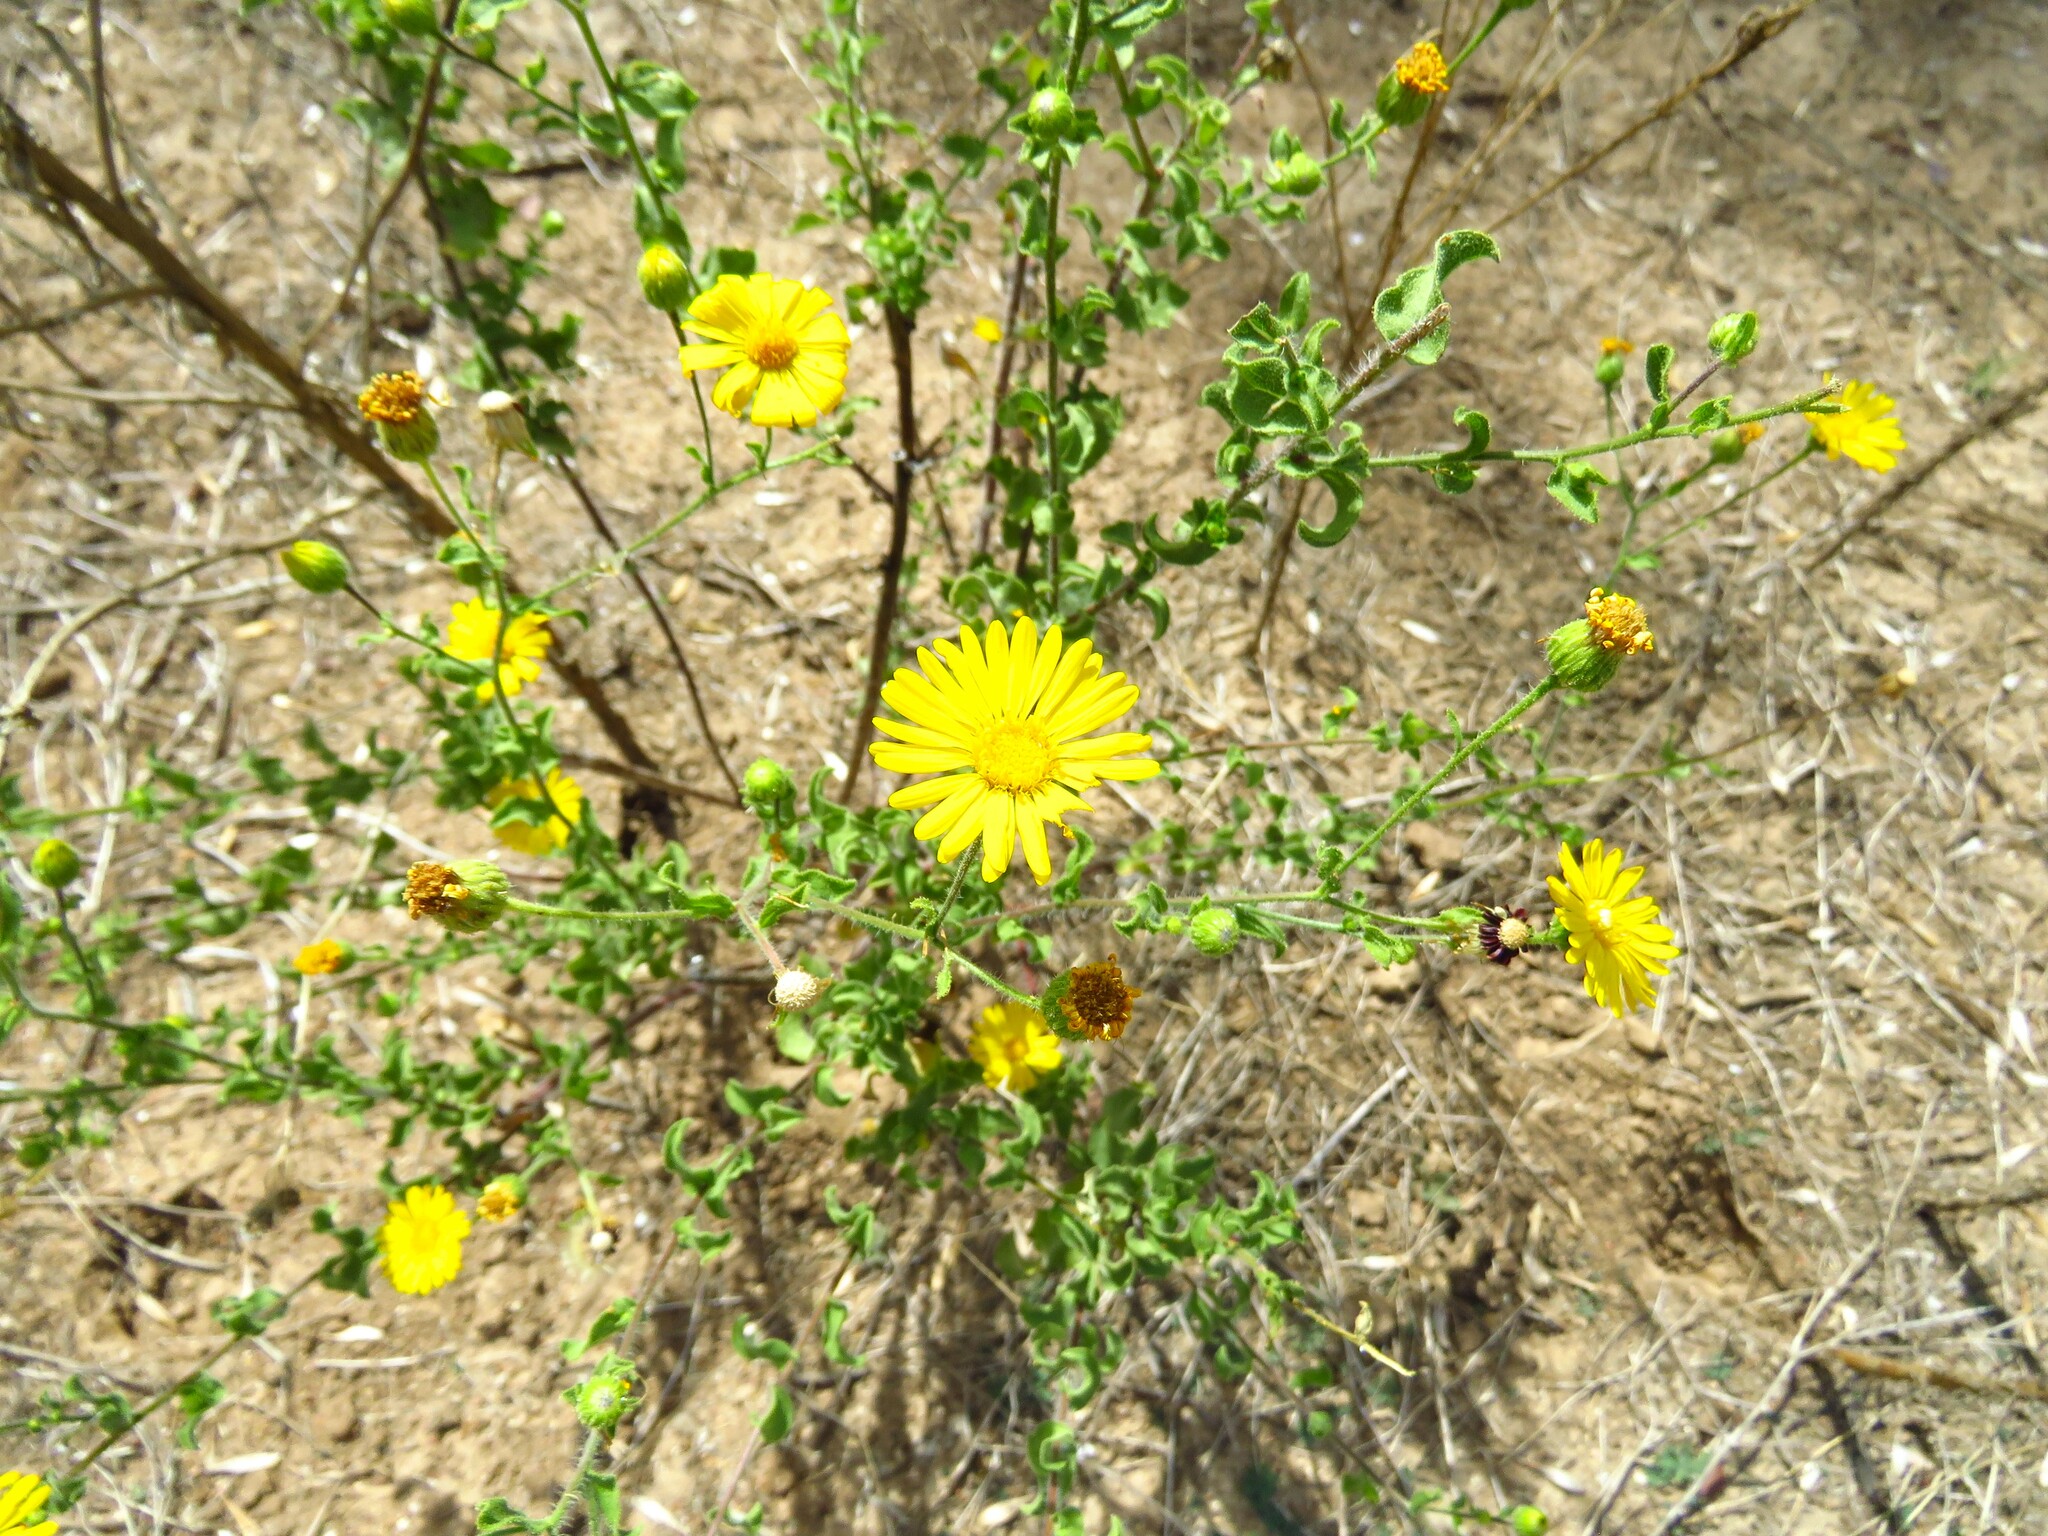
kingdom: Plantae
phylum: Tracheophyta
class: Magnoliopsida
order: Asterales
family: Asteraceae
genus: Heterotheca
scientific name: Heterotheca subaxillaris
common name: Camphorweed
